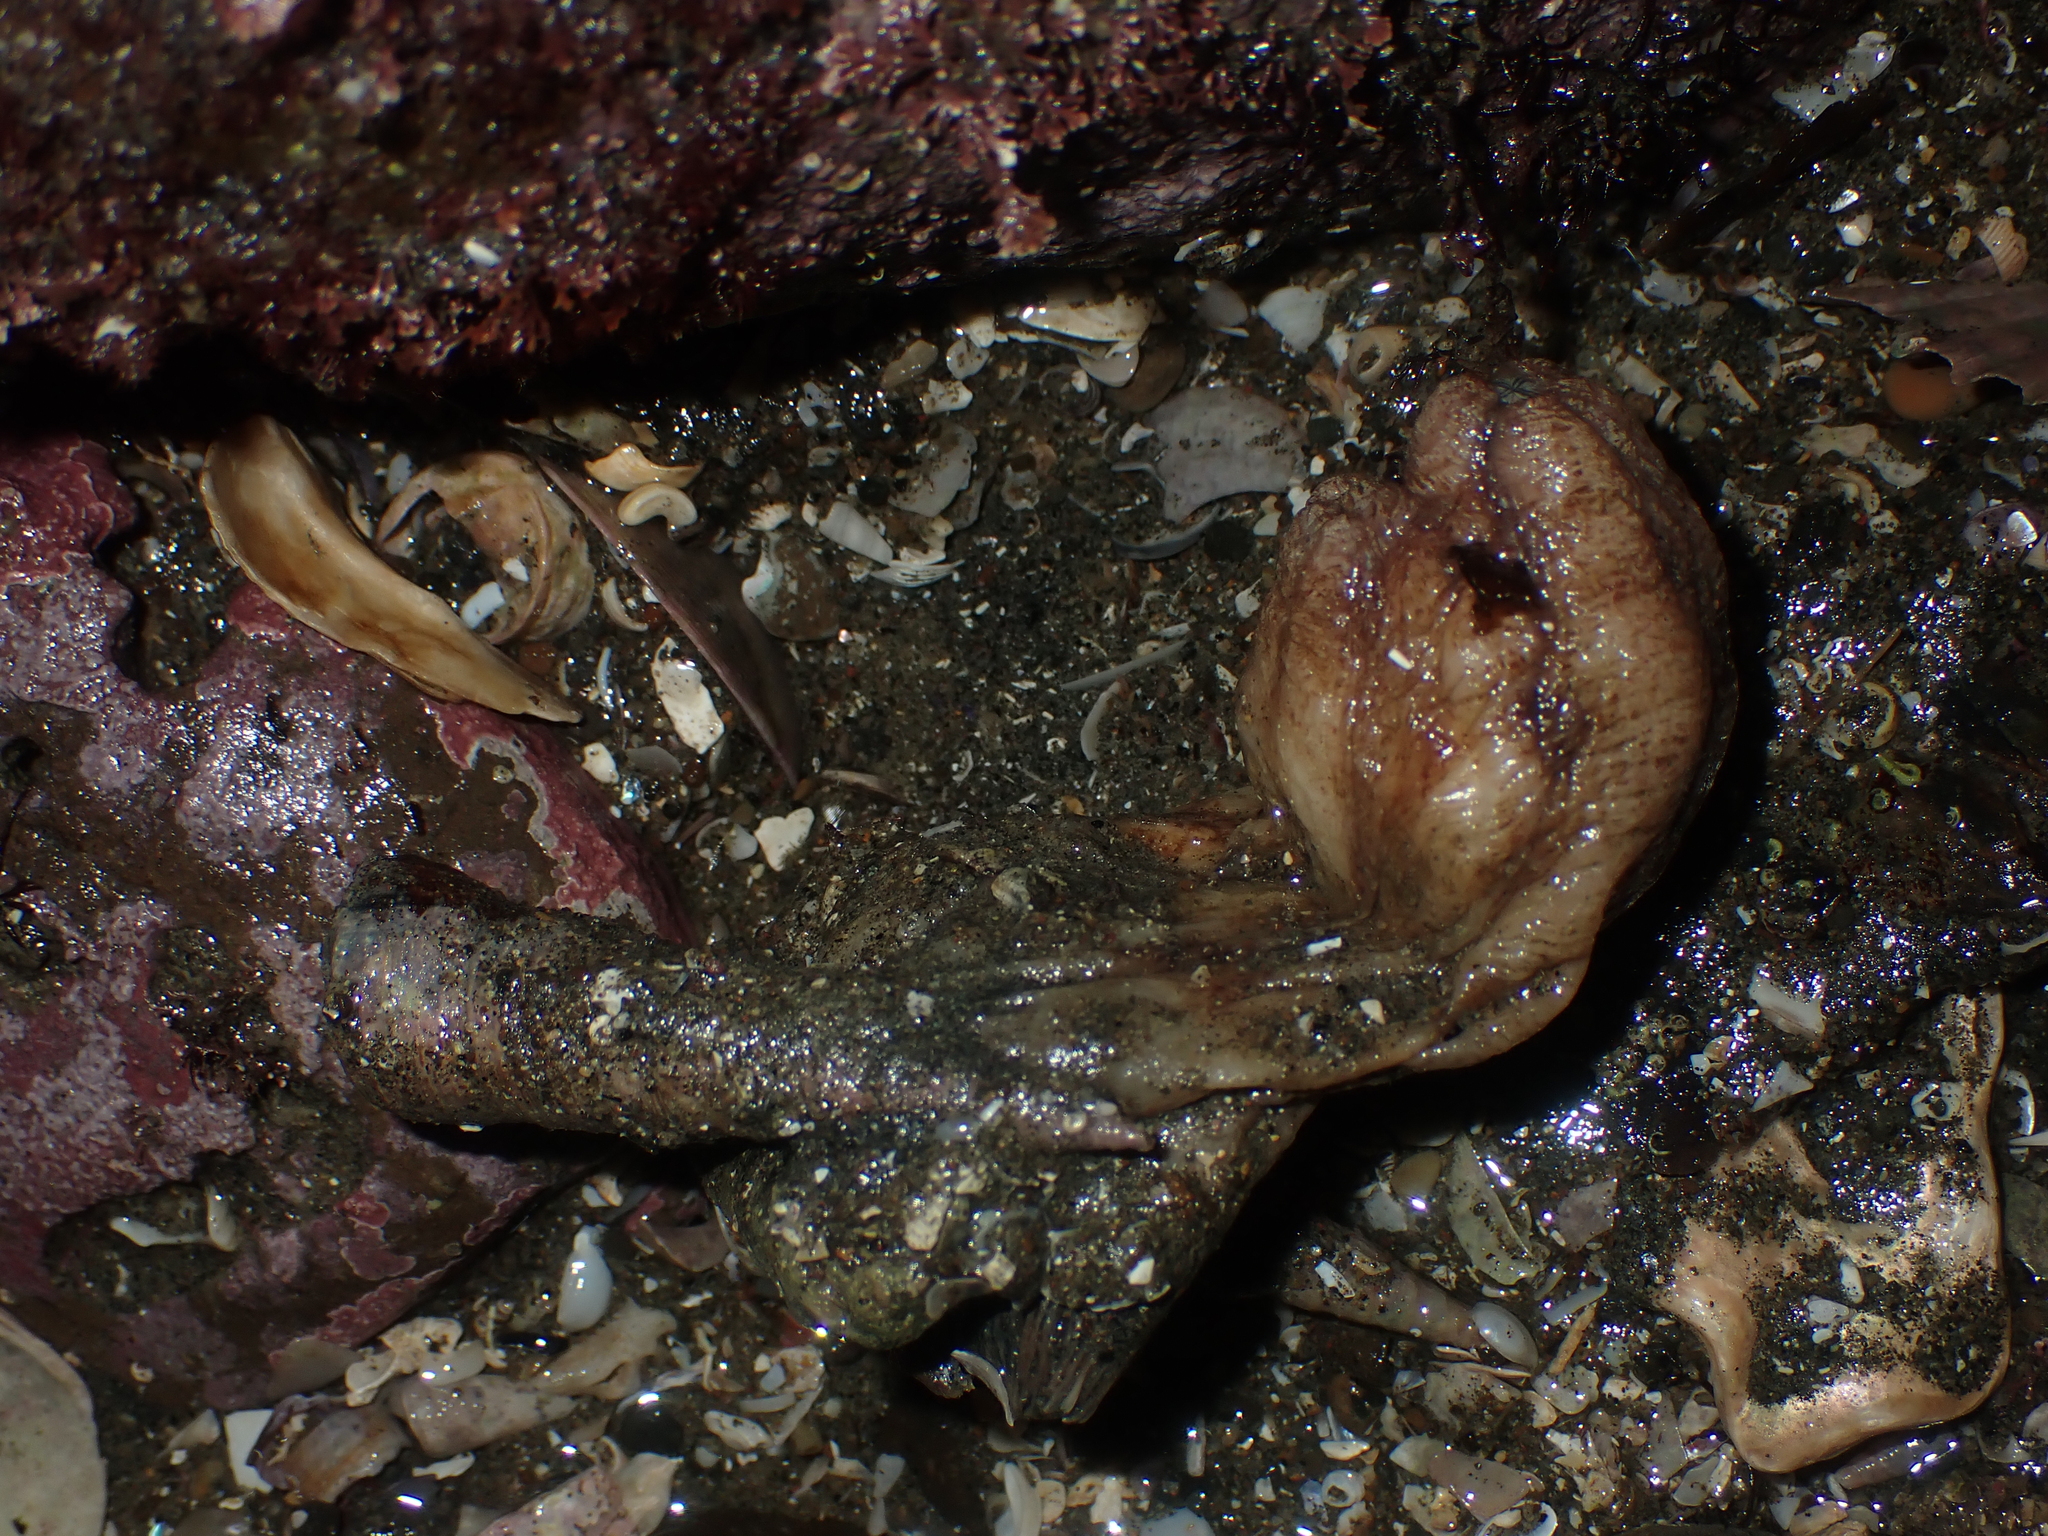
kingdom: Animalia
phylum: Chordata
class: Ascidiacea
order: Stolidobranchia
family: Styelidae
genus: Styela
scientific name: Styela plicata
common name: Pleated tunicate
